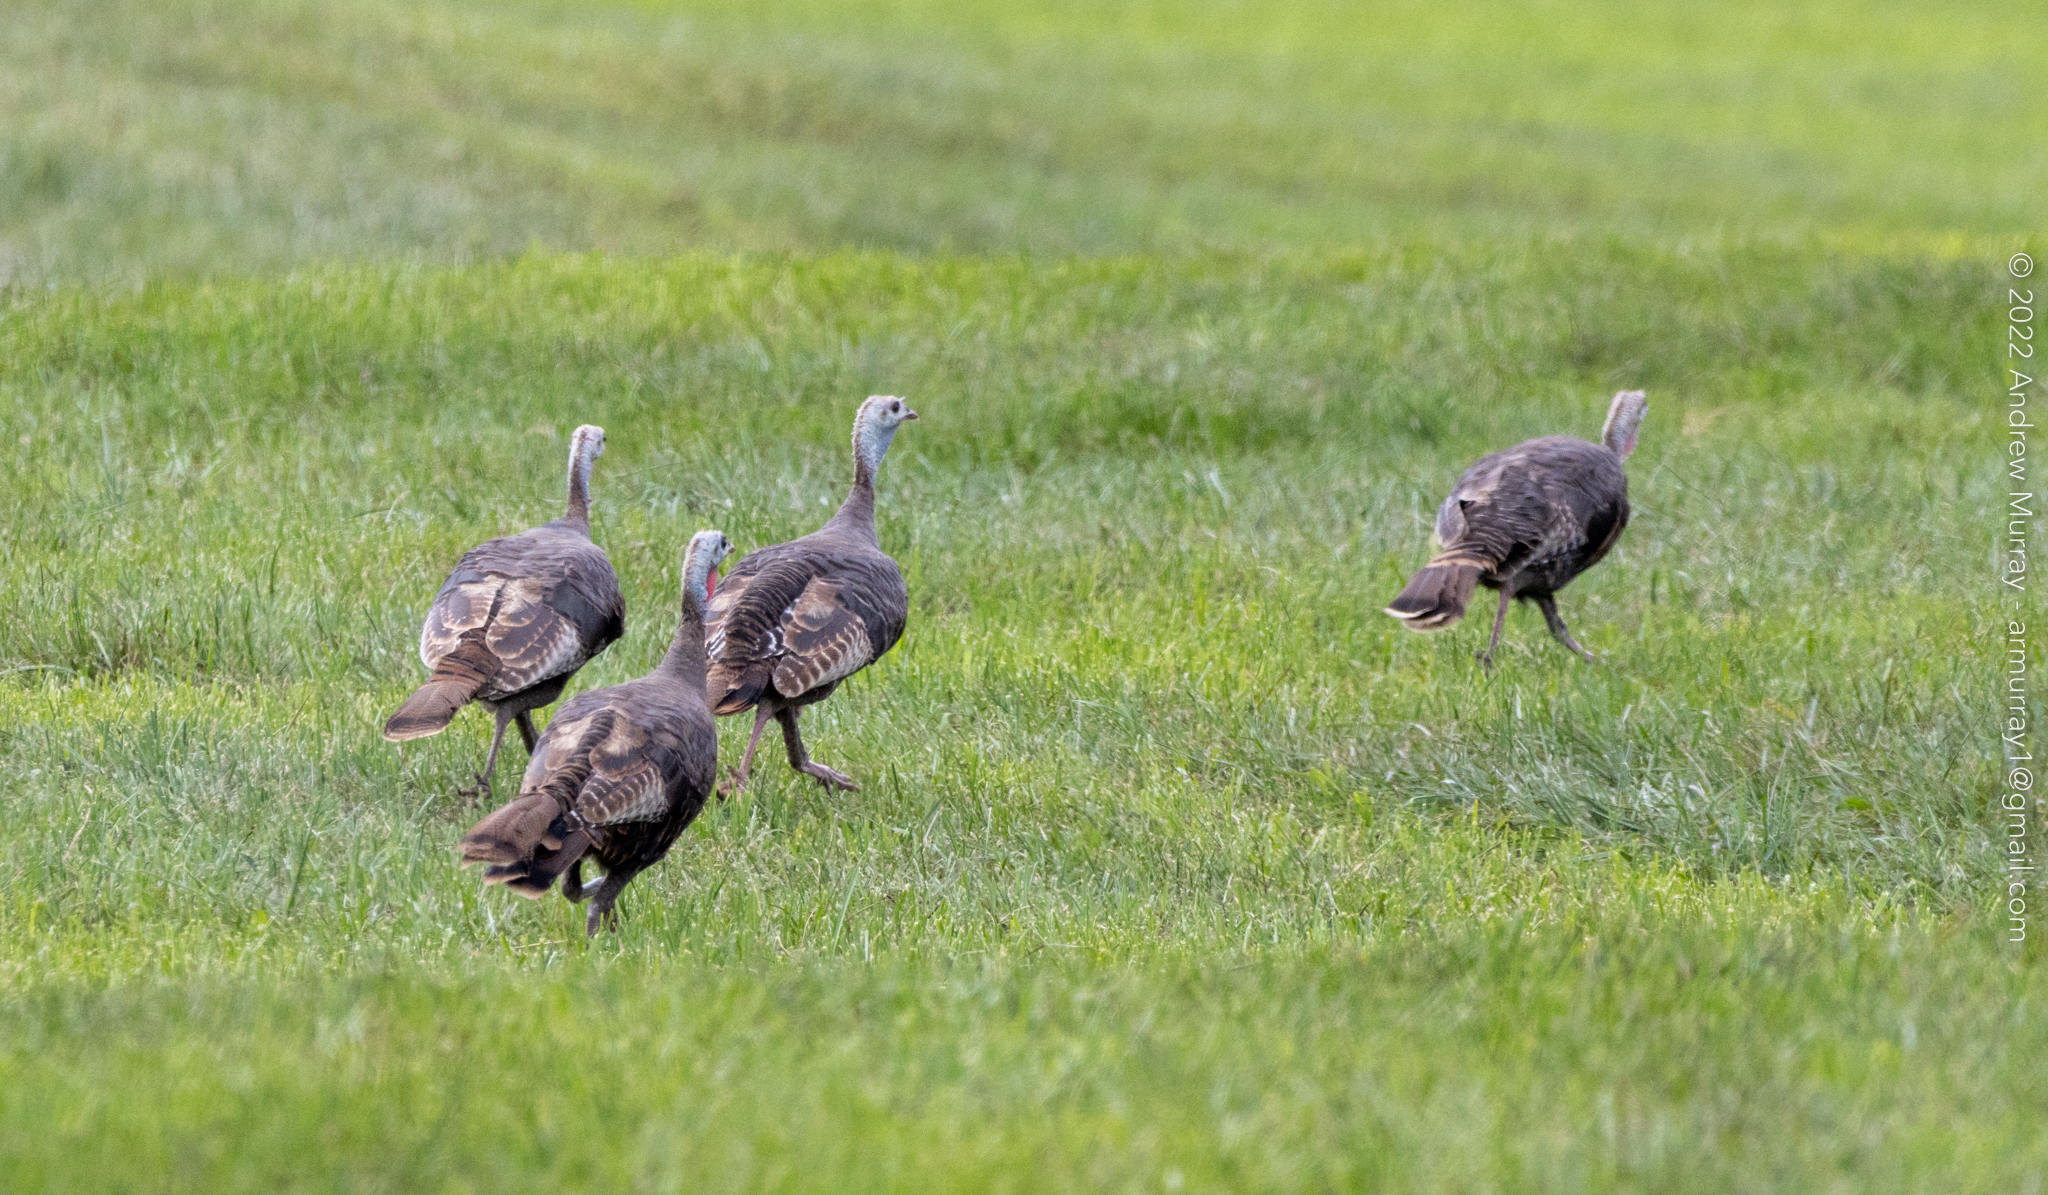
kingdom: Animalia
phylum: Chordata
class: Aves
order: Galliformes
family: Phasianidae
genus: Meleagris
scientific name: Meleagris gallopavo
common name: Wild turkey
